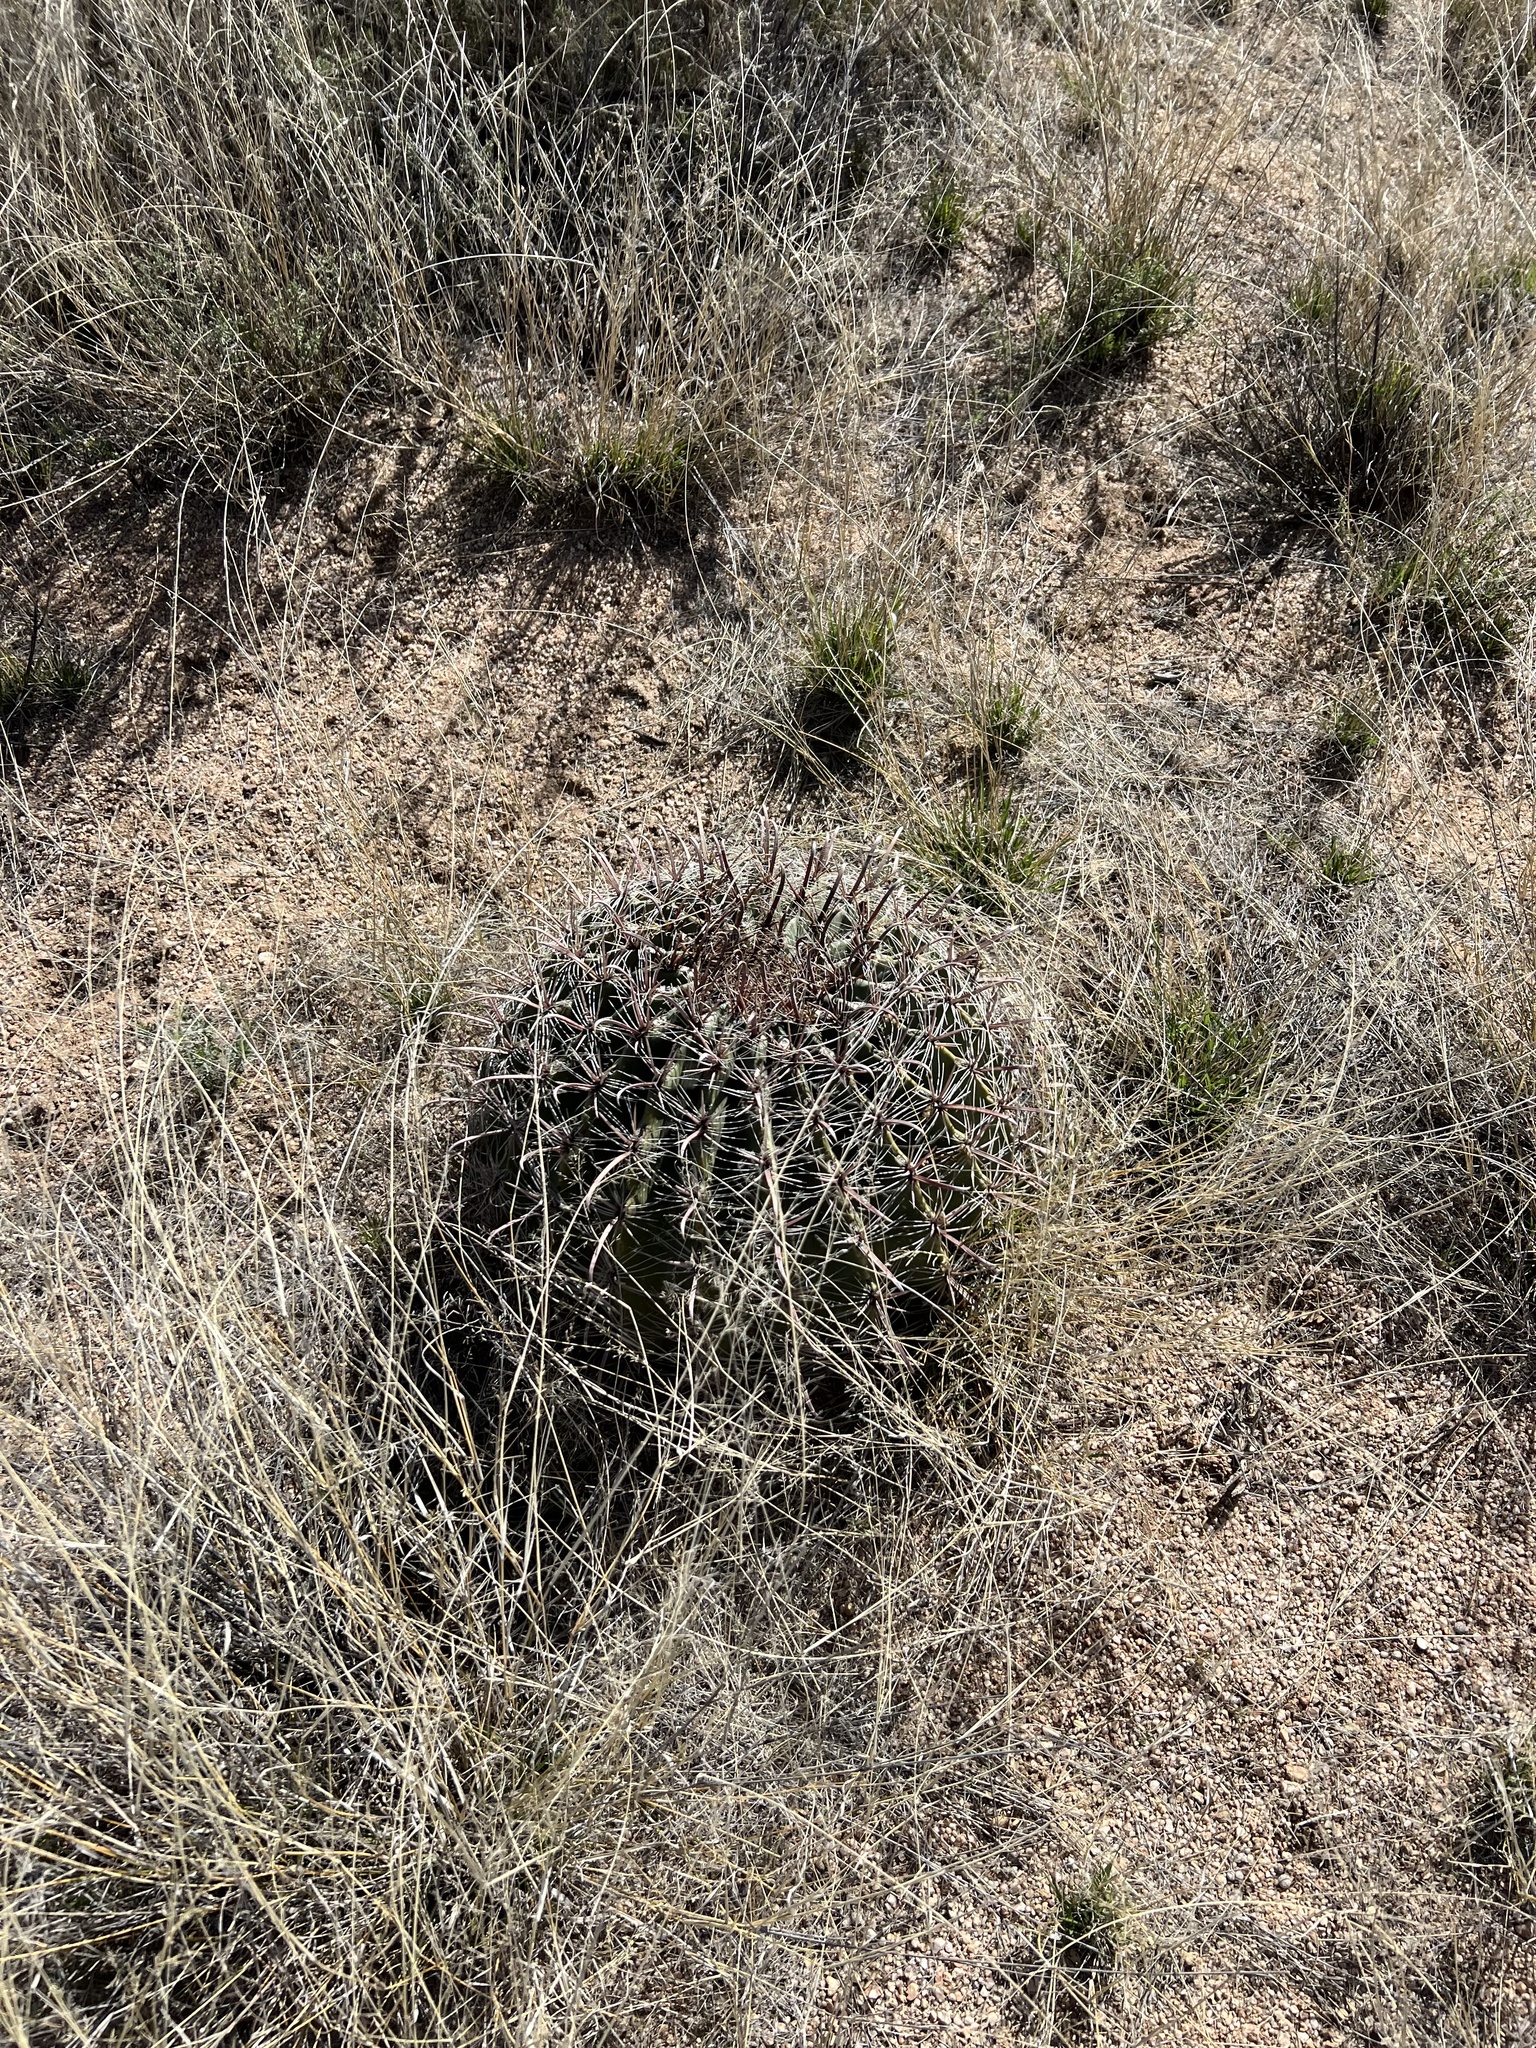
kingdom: Plantae
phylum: Tracheophyta
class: Magnoliopsida
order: Caryophyllales
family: Cactaceae
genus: Ferocactus
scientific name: Ferocactus wislizeni
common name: Candy barrel cactus
